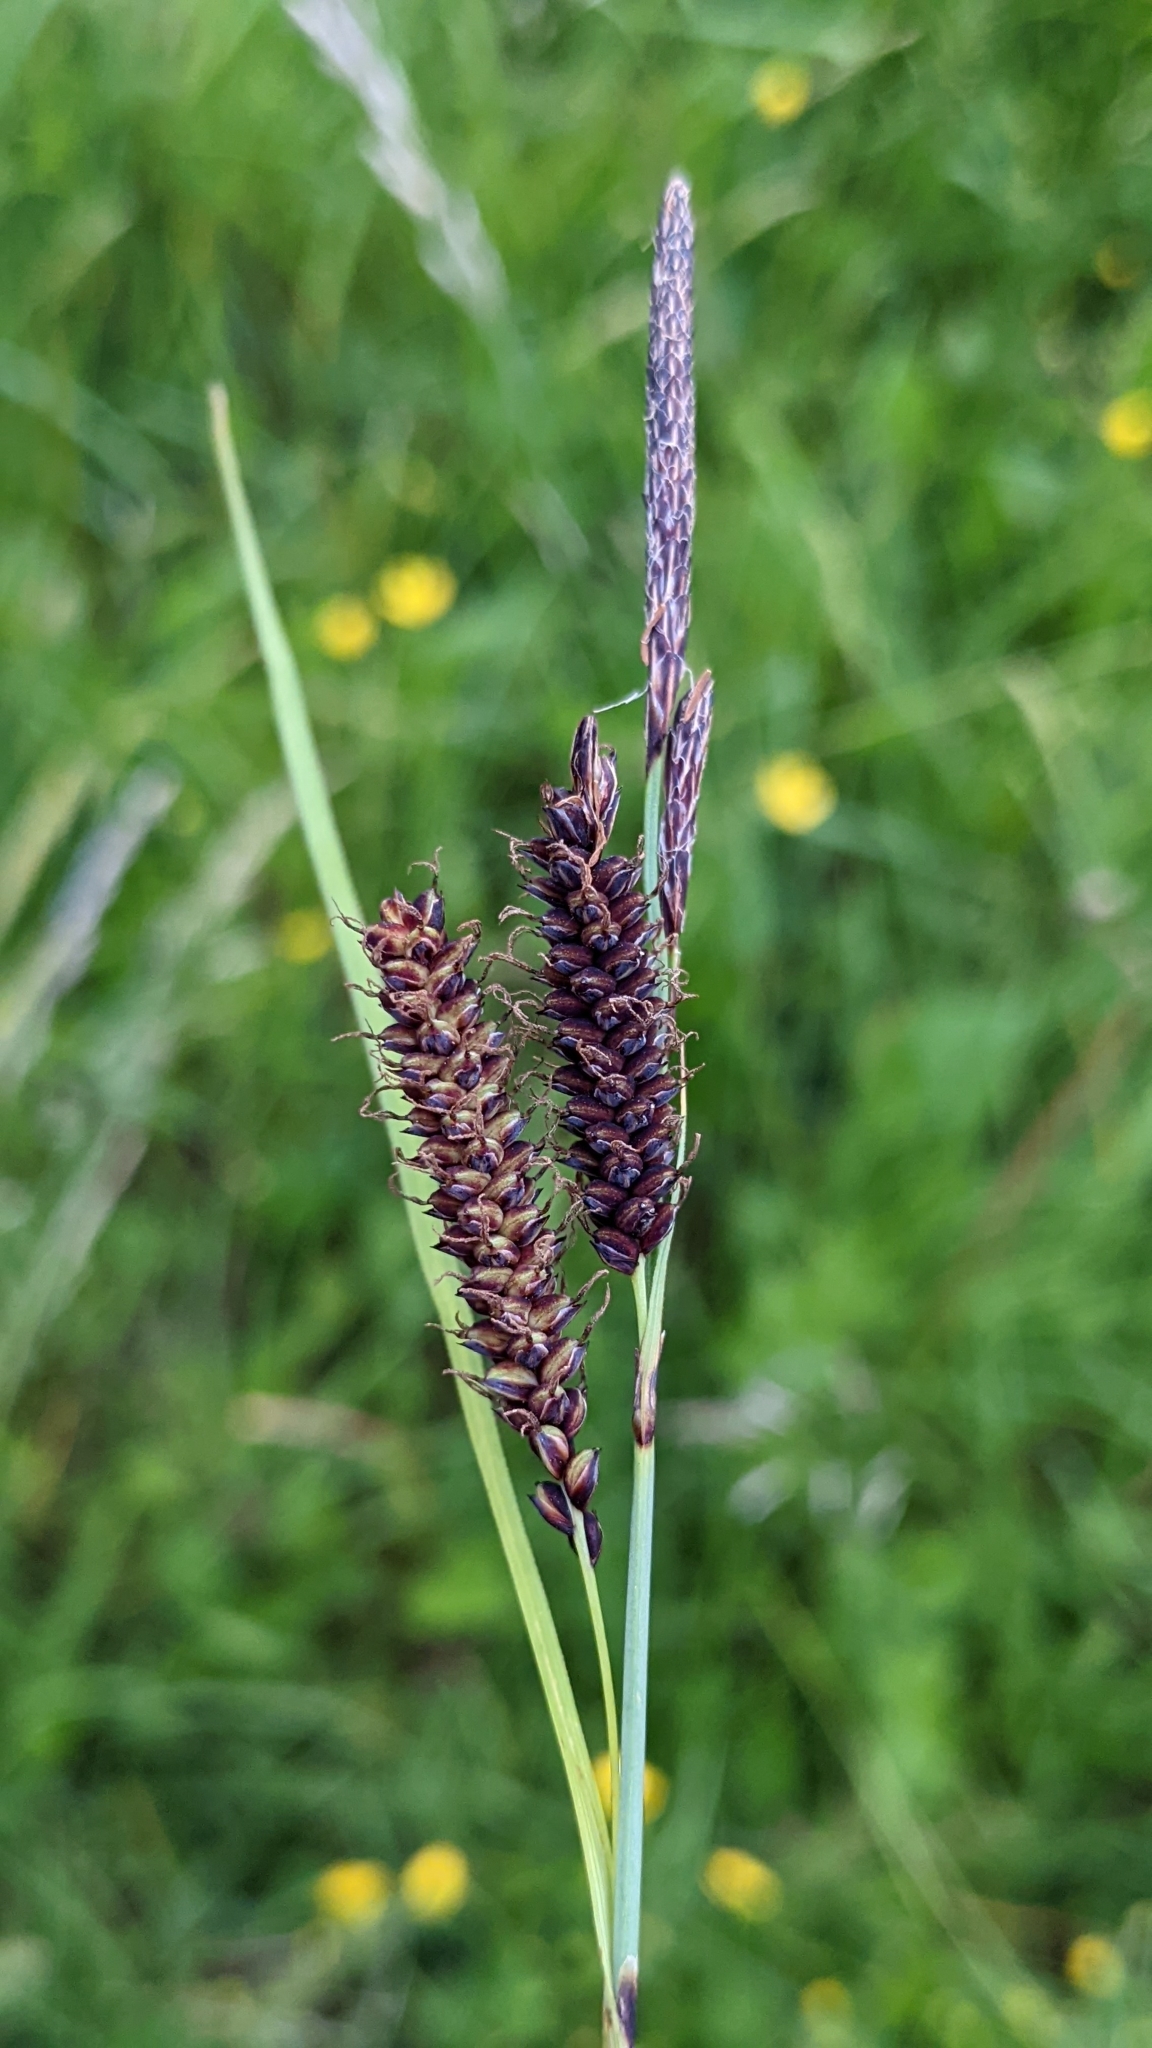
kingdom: Plantae
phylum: Tracheophyta
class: Liliopsida
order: Poales
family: Cyperaceae
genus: Carex
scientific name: Carex flacca
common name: Glaucous sedge
